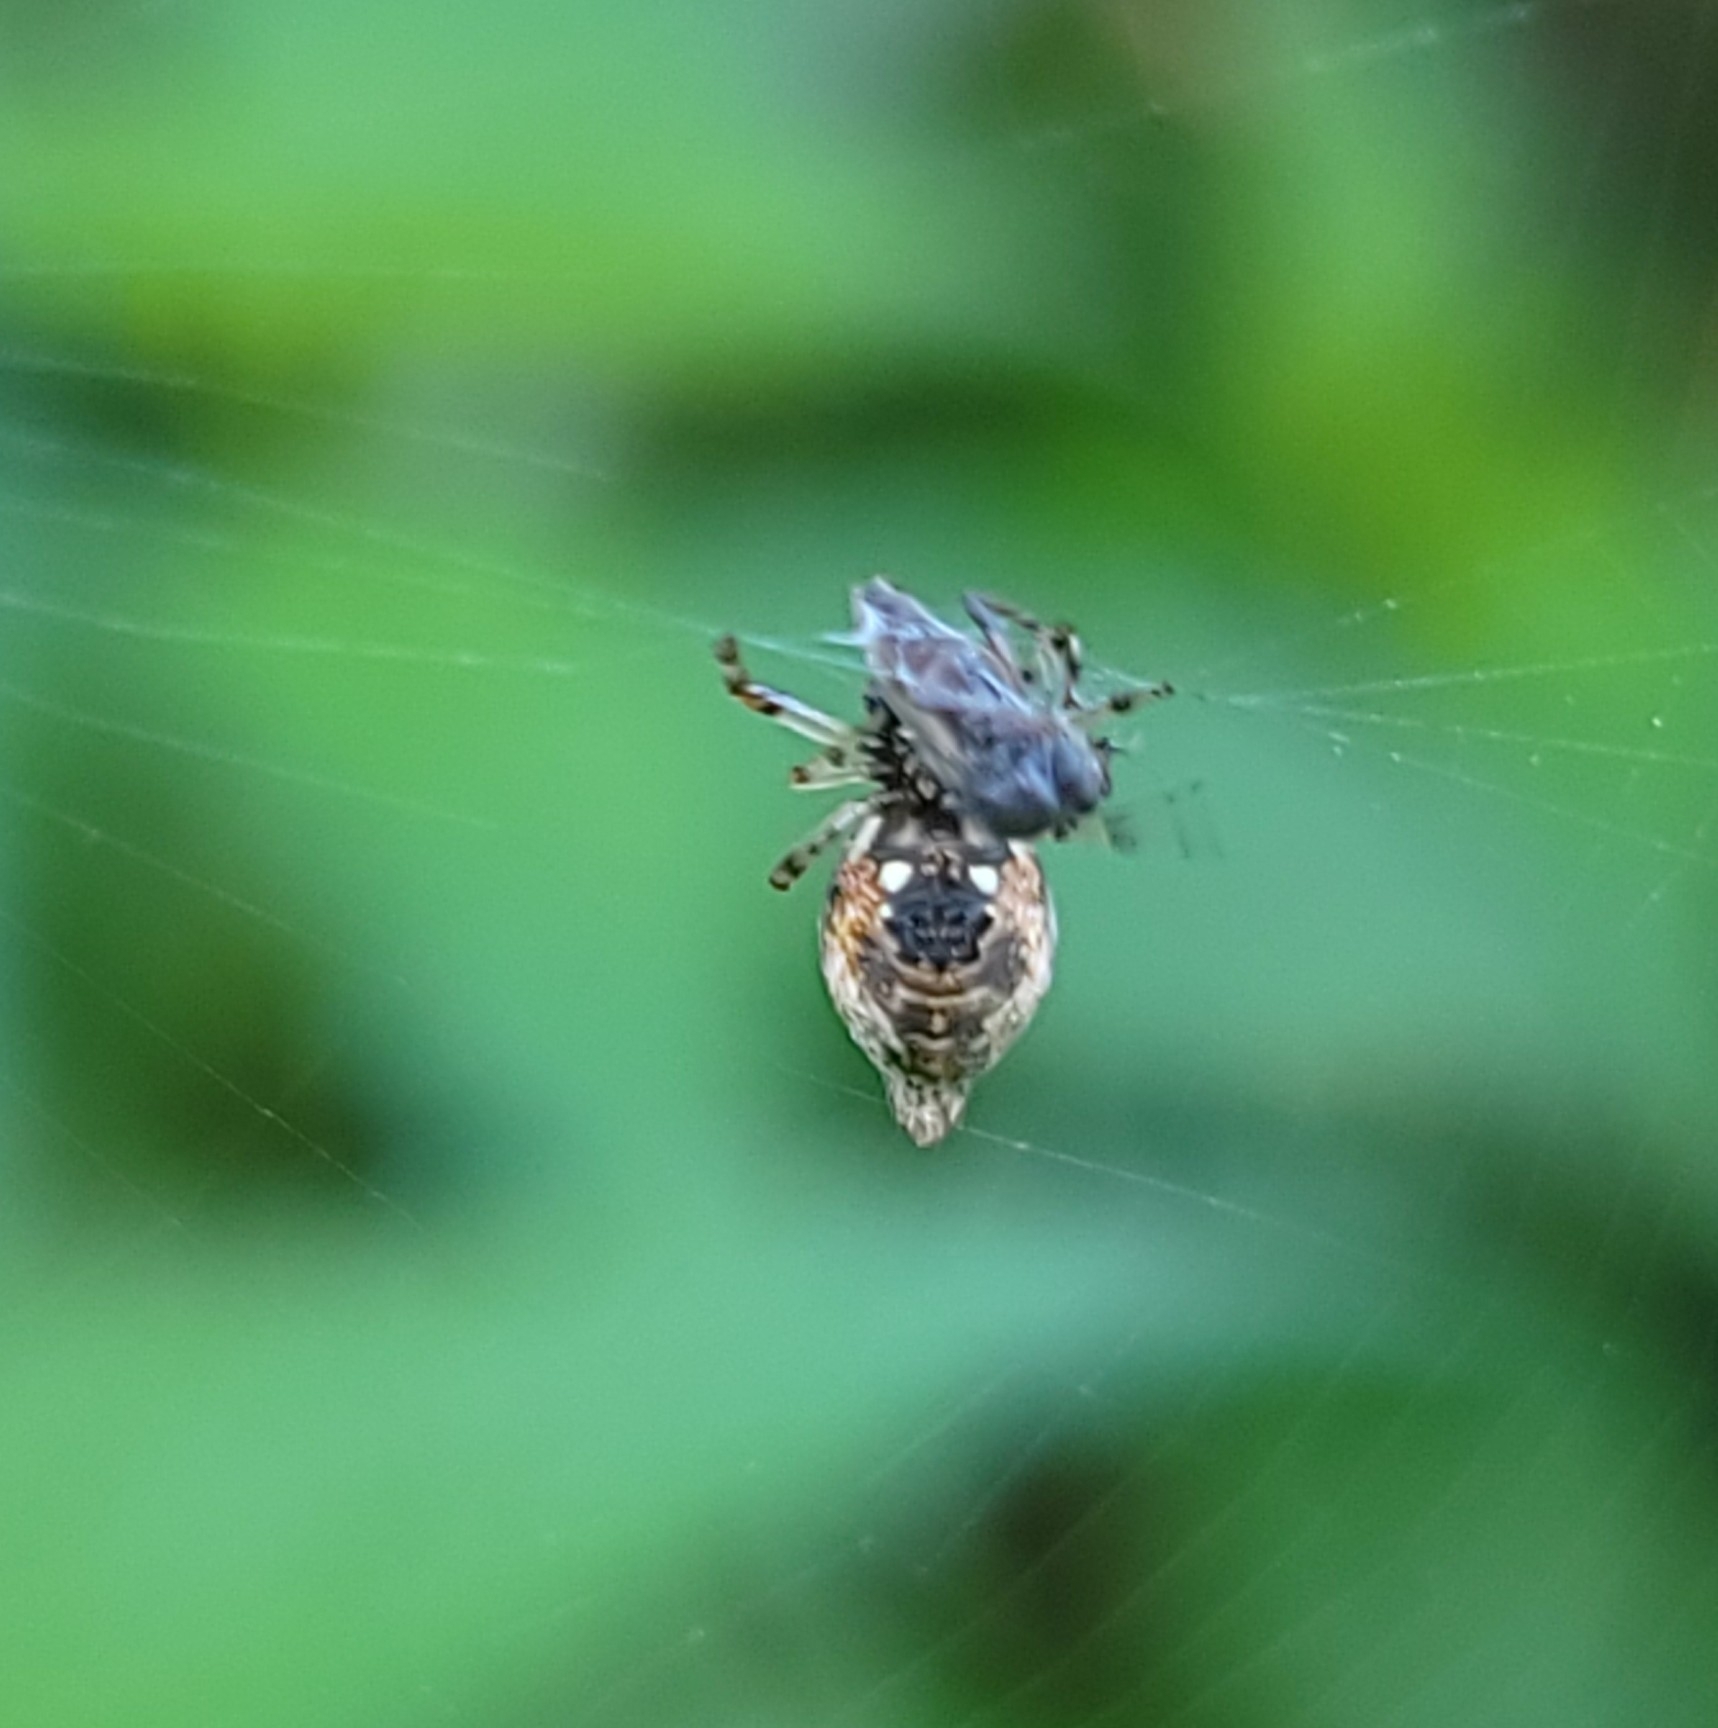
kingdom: Animalia
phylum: Arthropoda
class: Arachnida
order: Araneae
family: Araneidae
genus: Cyclosa
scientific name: Cyclosa turbinata
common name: Orb weavers
